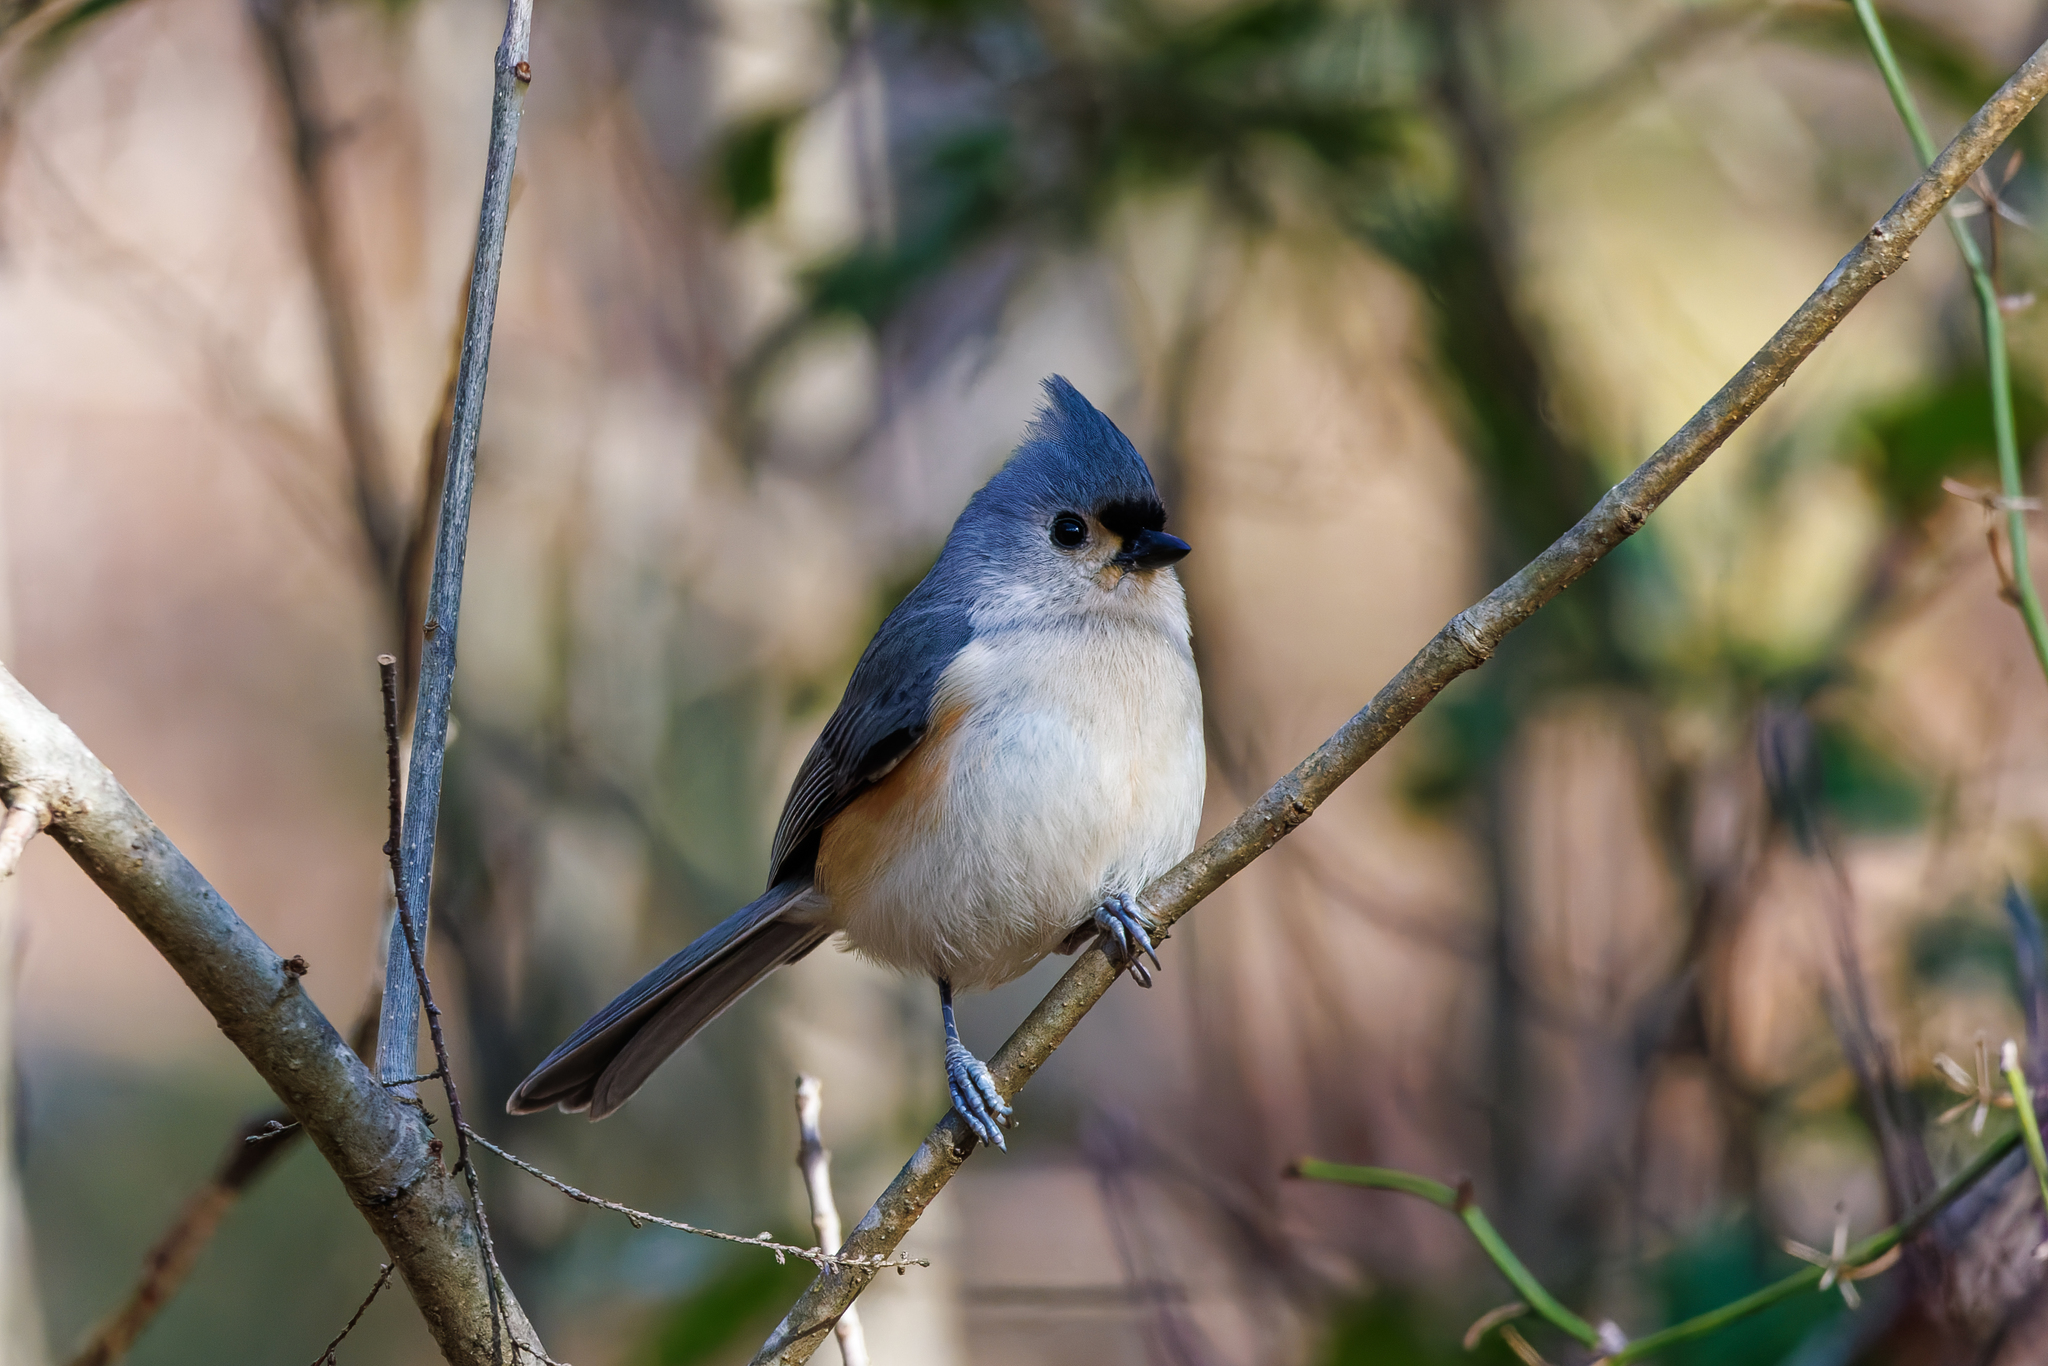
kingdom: Animalia
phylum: Chordata
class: Aves
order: Passeriformes
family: Paridae
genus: Baeolophus
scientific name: Baeolophus bicolor
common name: Tufted titmouse
